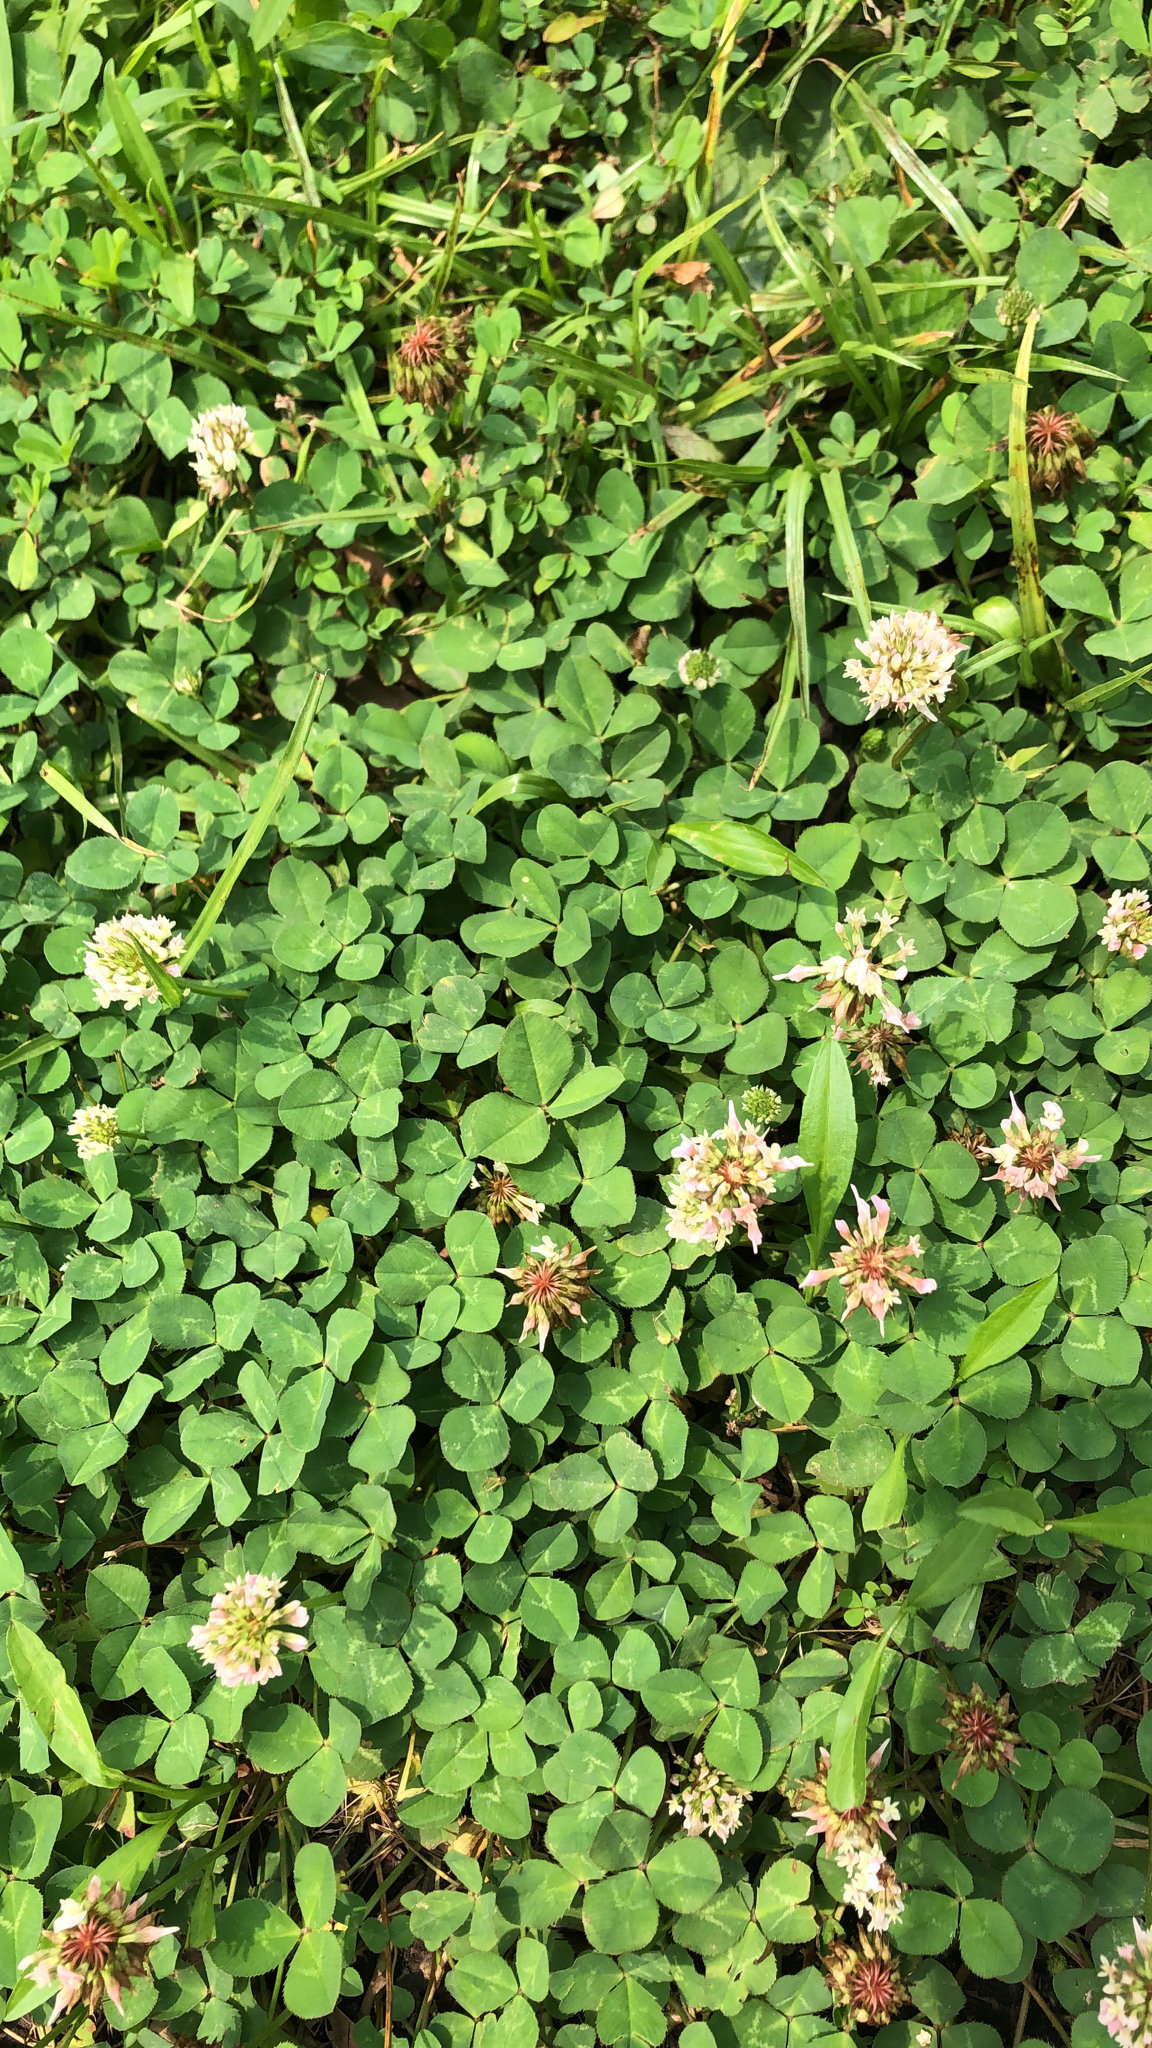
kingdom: Plantae
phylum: Tracheophyta
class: Magnoliopsida
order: Fabales
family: Fabaceae
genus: Trifolium
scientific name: Trifolium repens
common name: White clover
